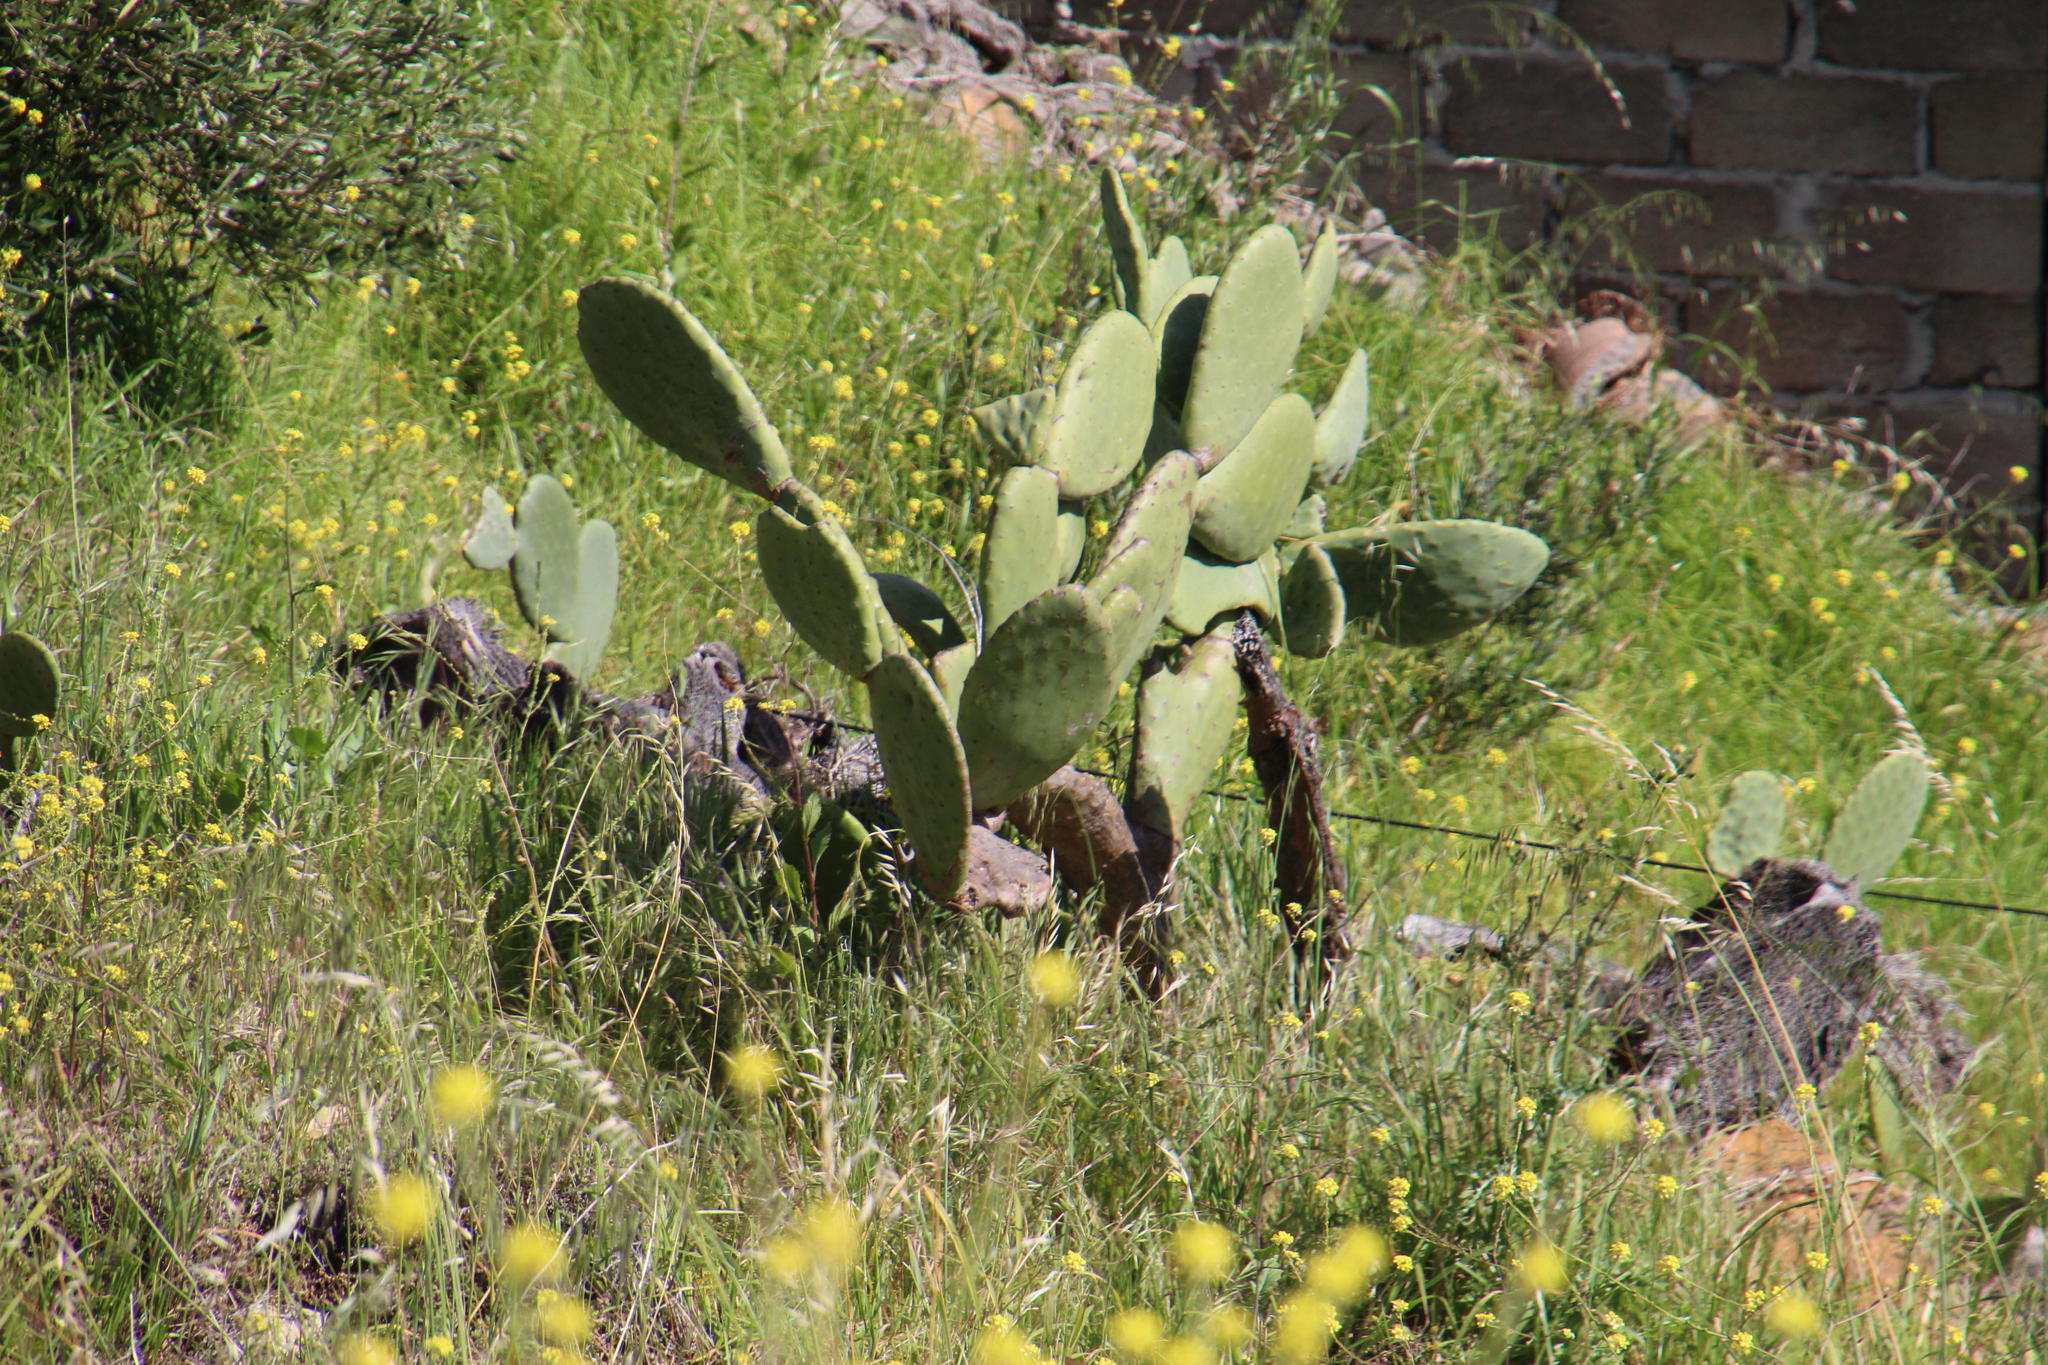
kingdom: Plantae
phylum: Tracheophyta
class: Magnoliopsida
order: Caryophyllales
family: Cactaceae
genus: Opuntia
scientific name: Opuntia ficus-indica
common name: Barbary fig
